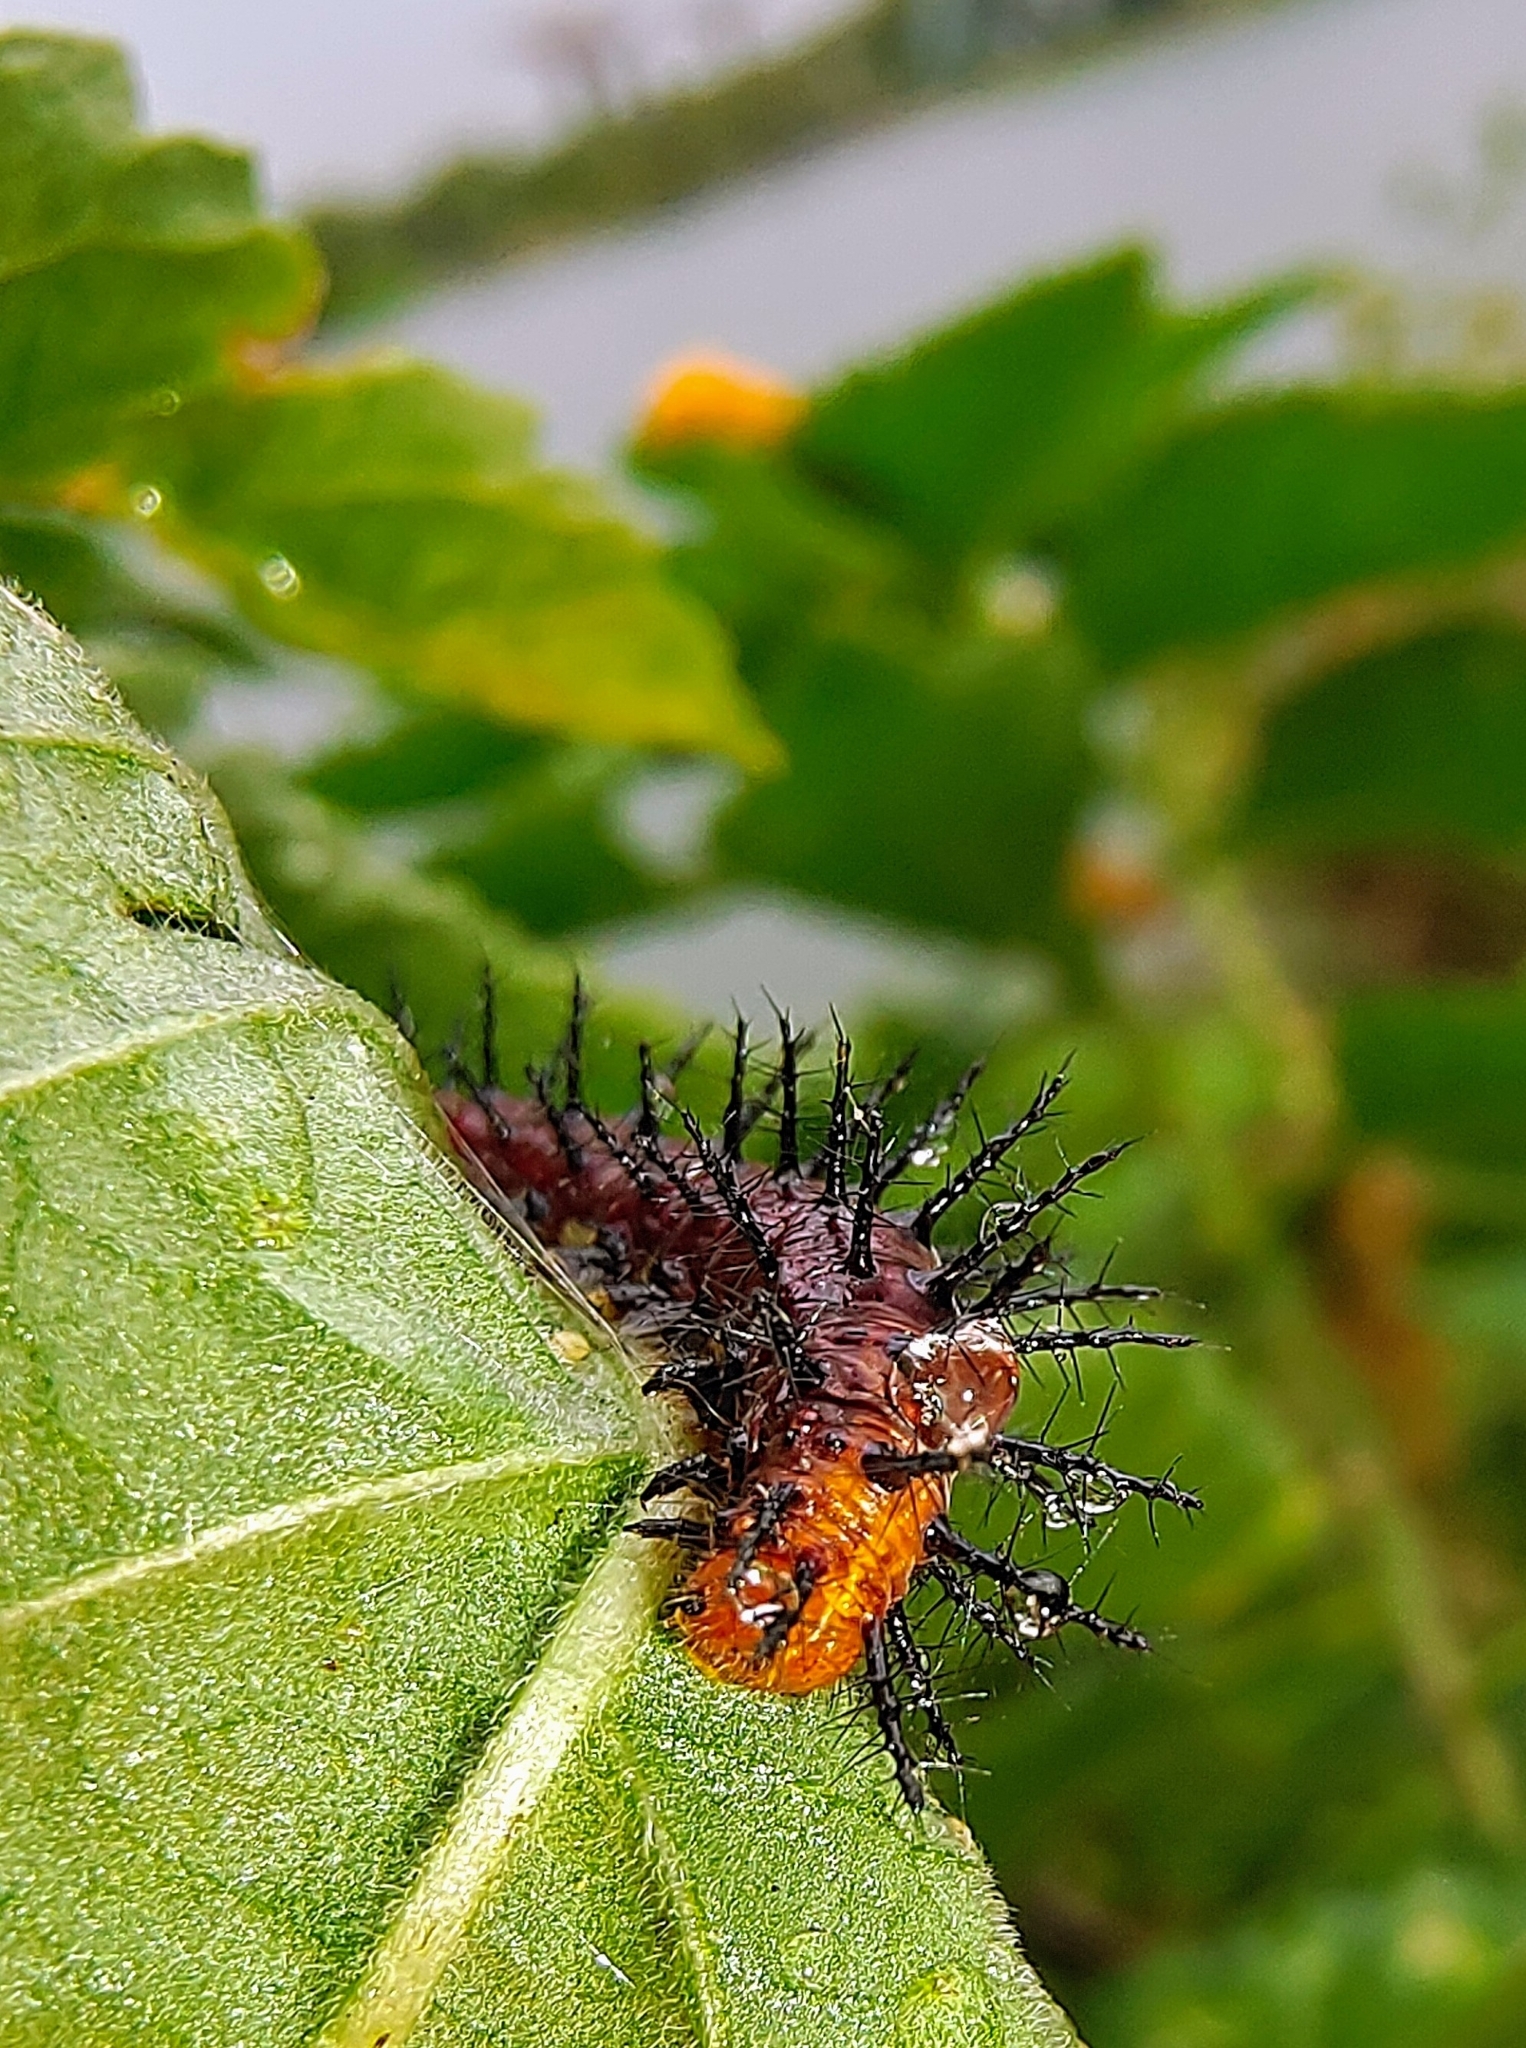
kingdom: Animalia
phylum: Arthropoda
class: Insecta
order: Lepidoptera
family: Nymphalidae
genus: Acraea
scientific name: Acraea terpsicore
